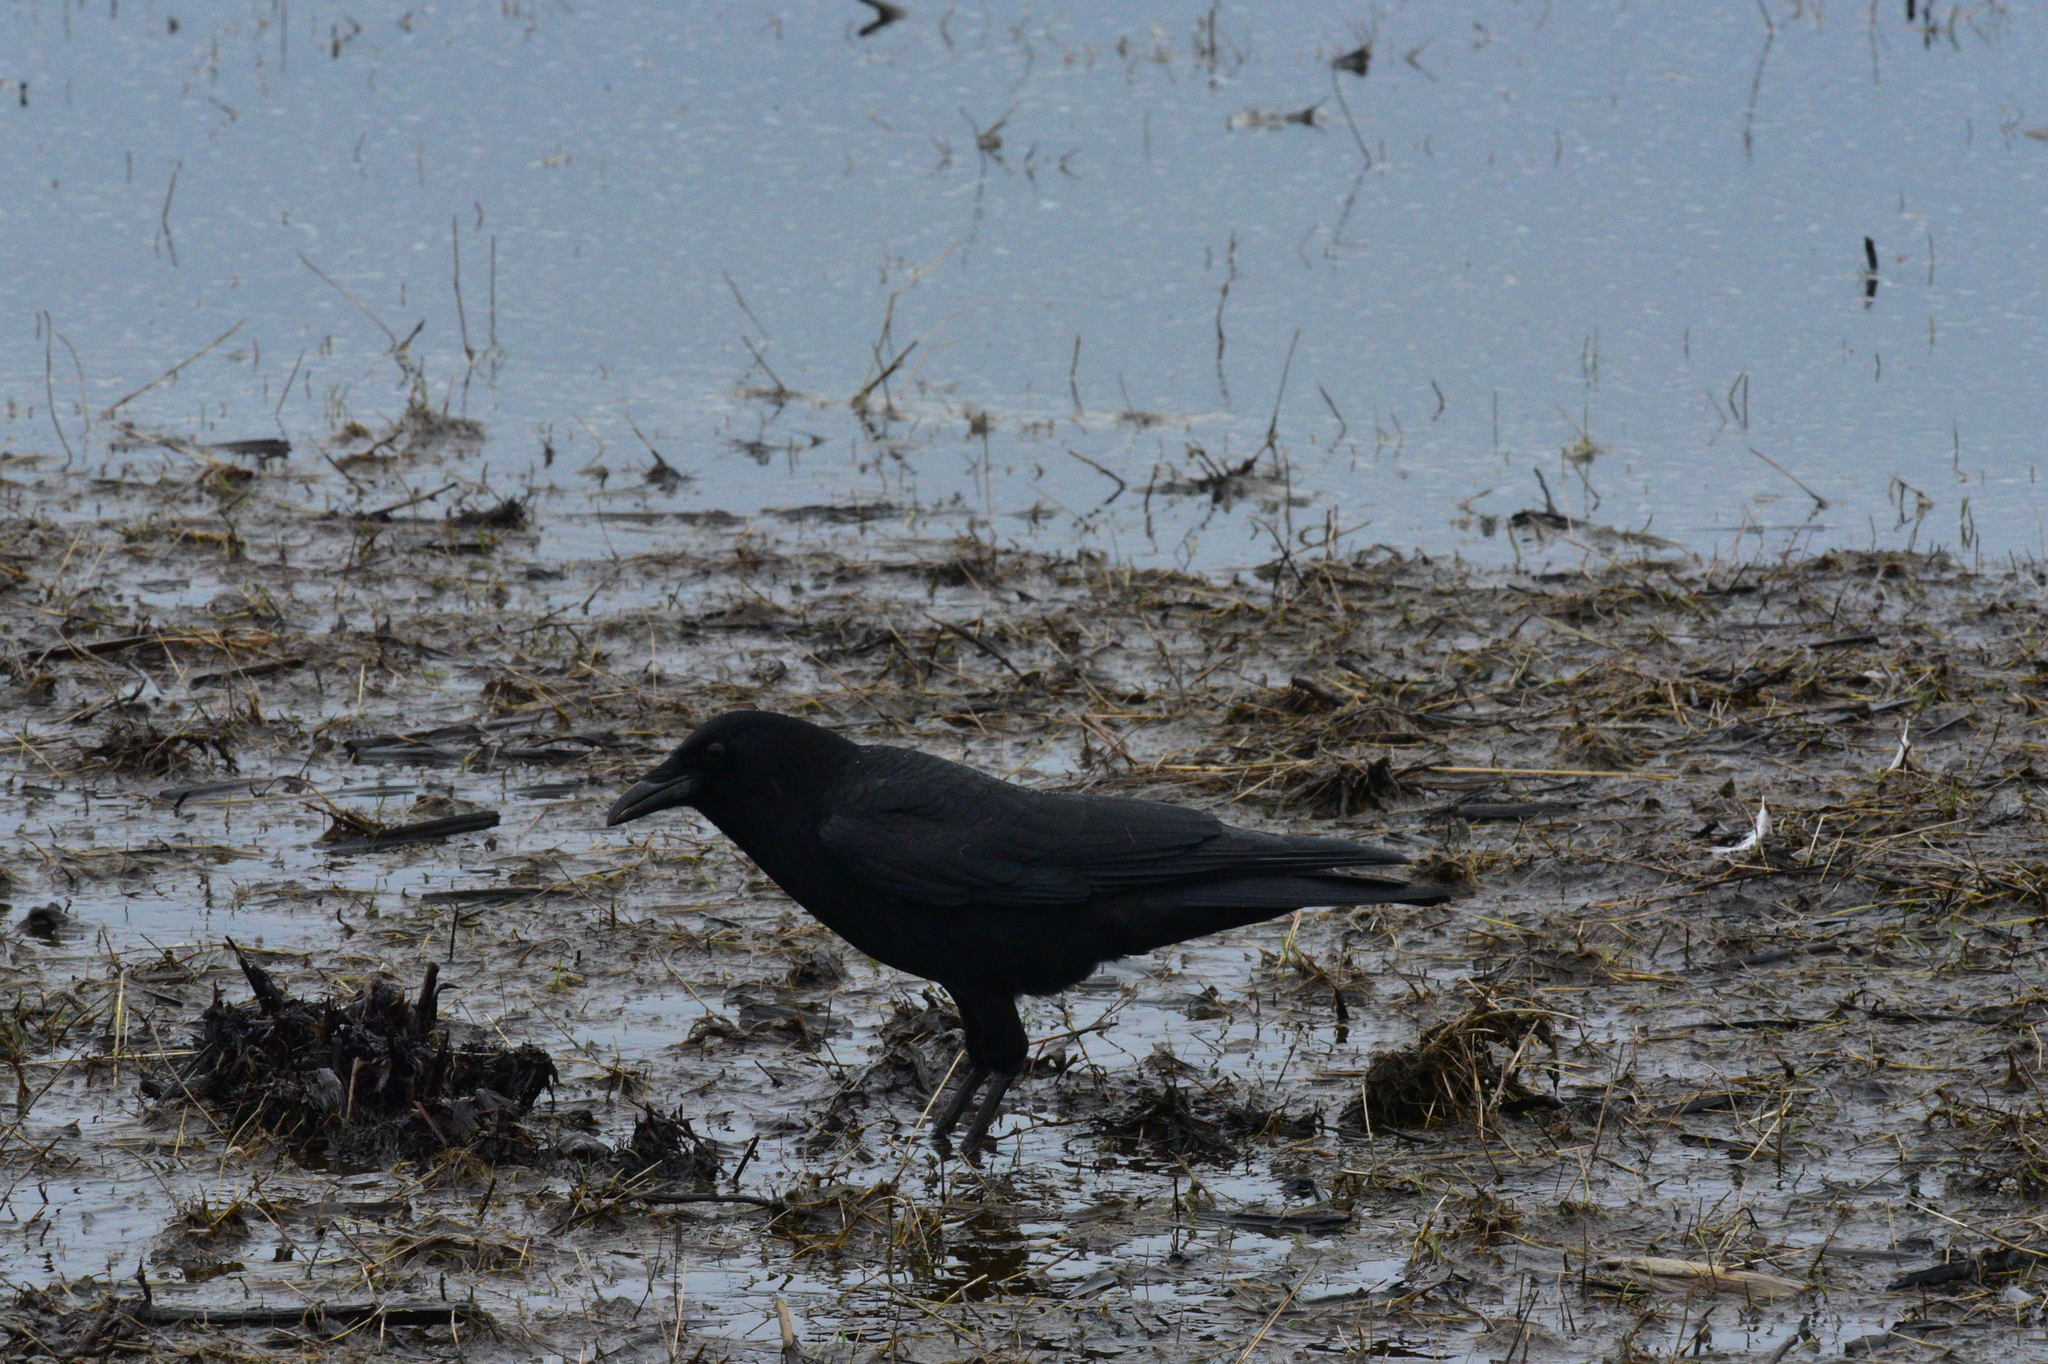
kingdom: Animalia
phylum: Chordata
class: Aves
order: Passeriformes
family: Corvidae
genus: Corvus
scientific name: Corvus brachyrhynchos
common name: American crow
